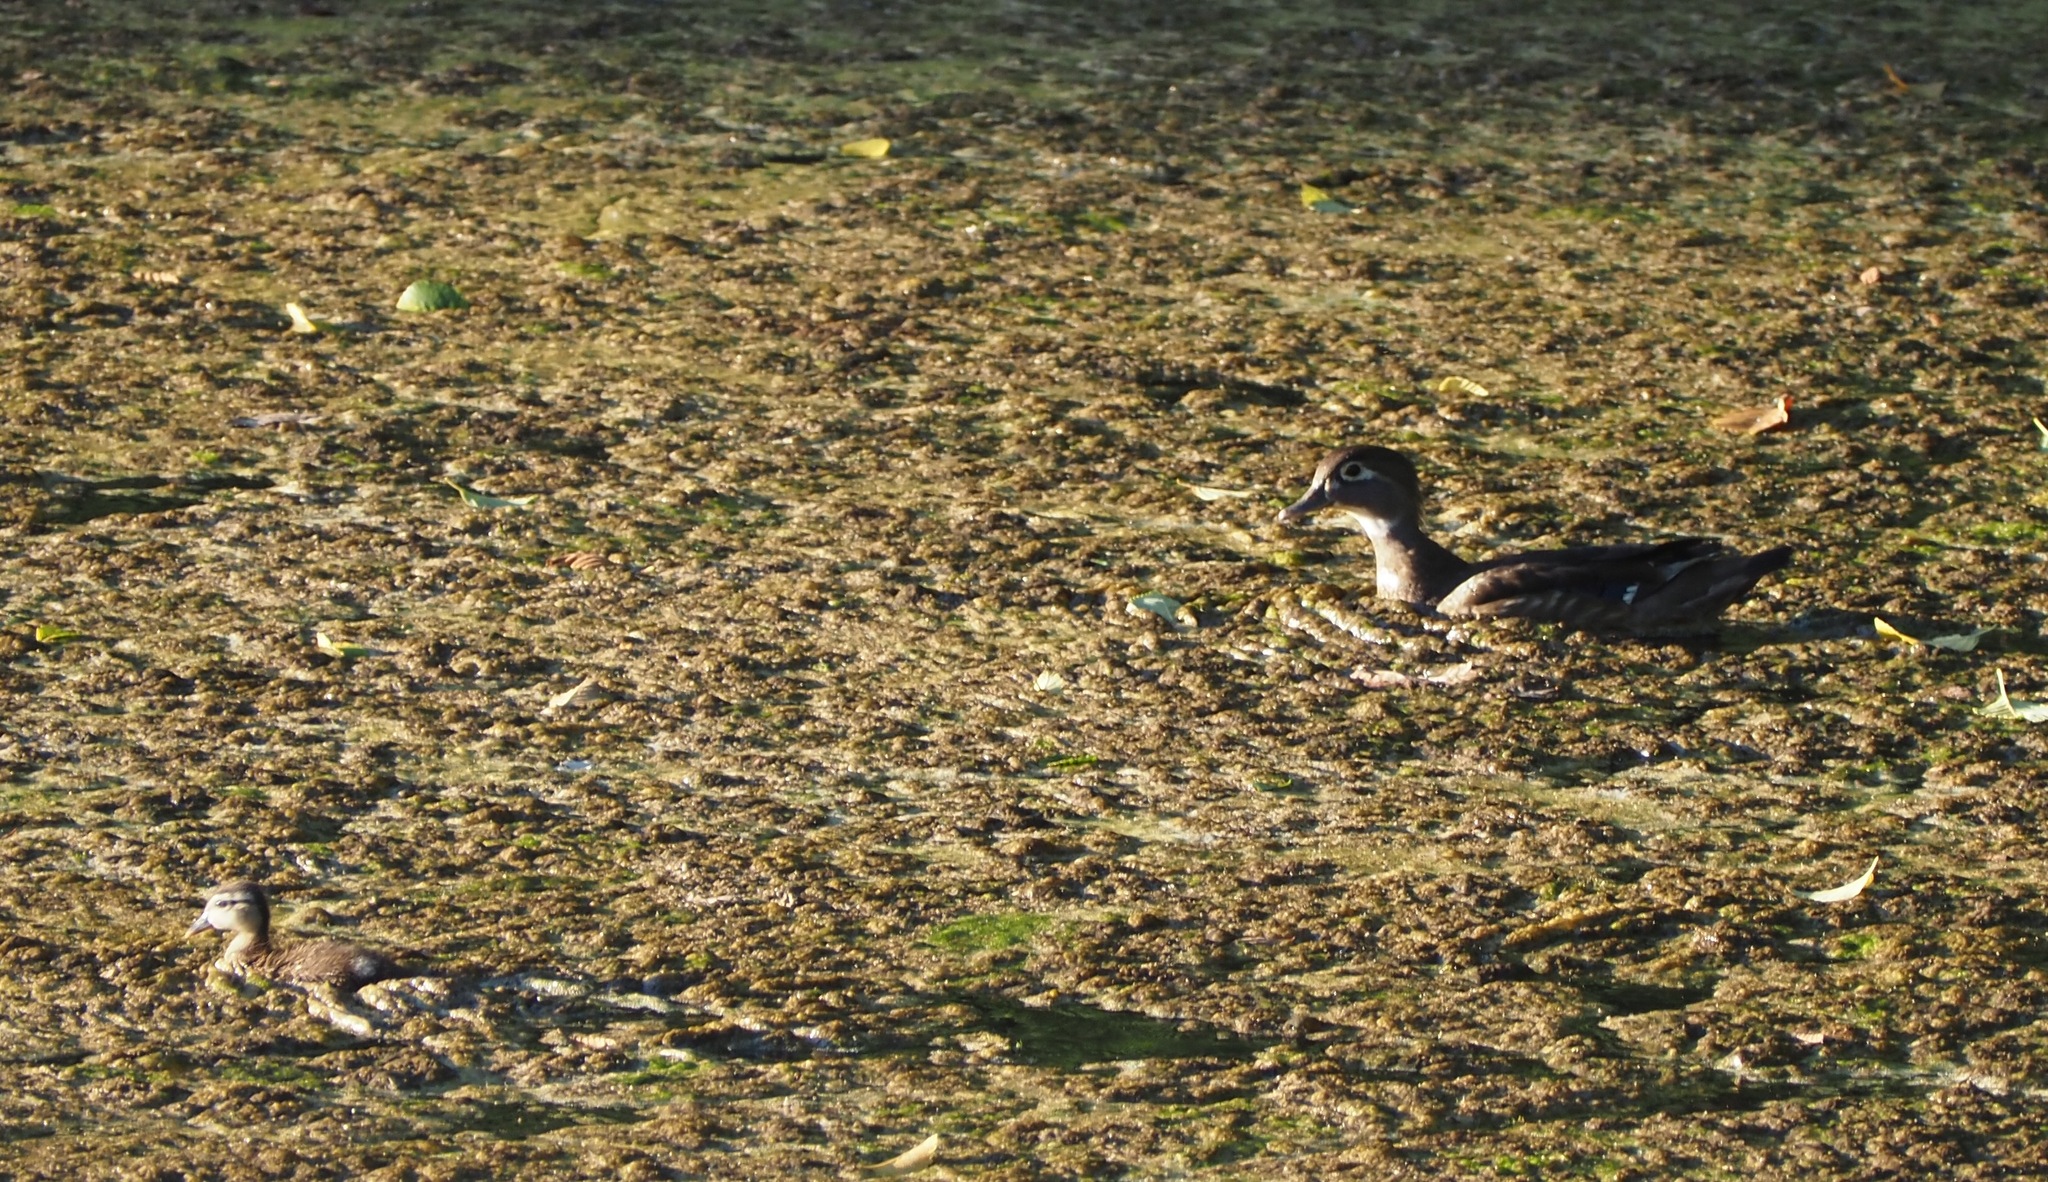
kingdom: Animalia
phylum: Chordata
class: Aves
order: Anseriformes
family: Anatidae
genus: Aix
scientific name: Aix sponsa
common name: Wood duck
